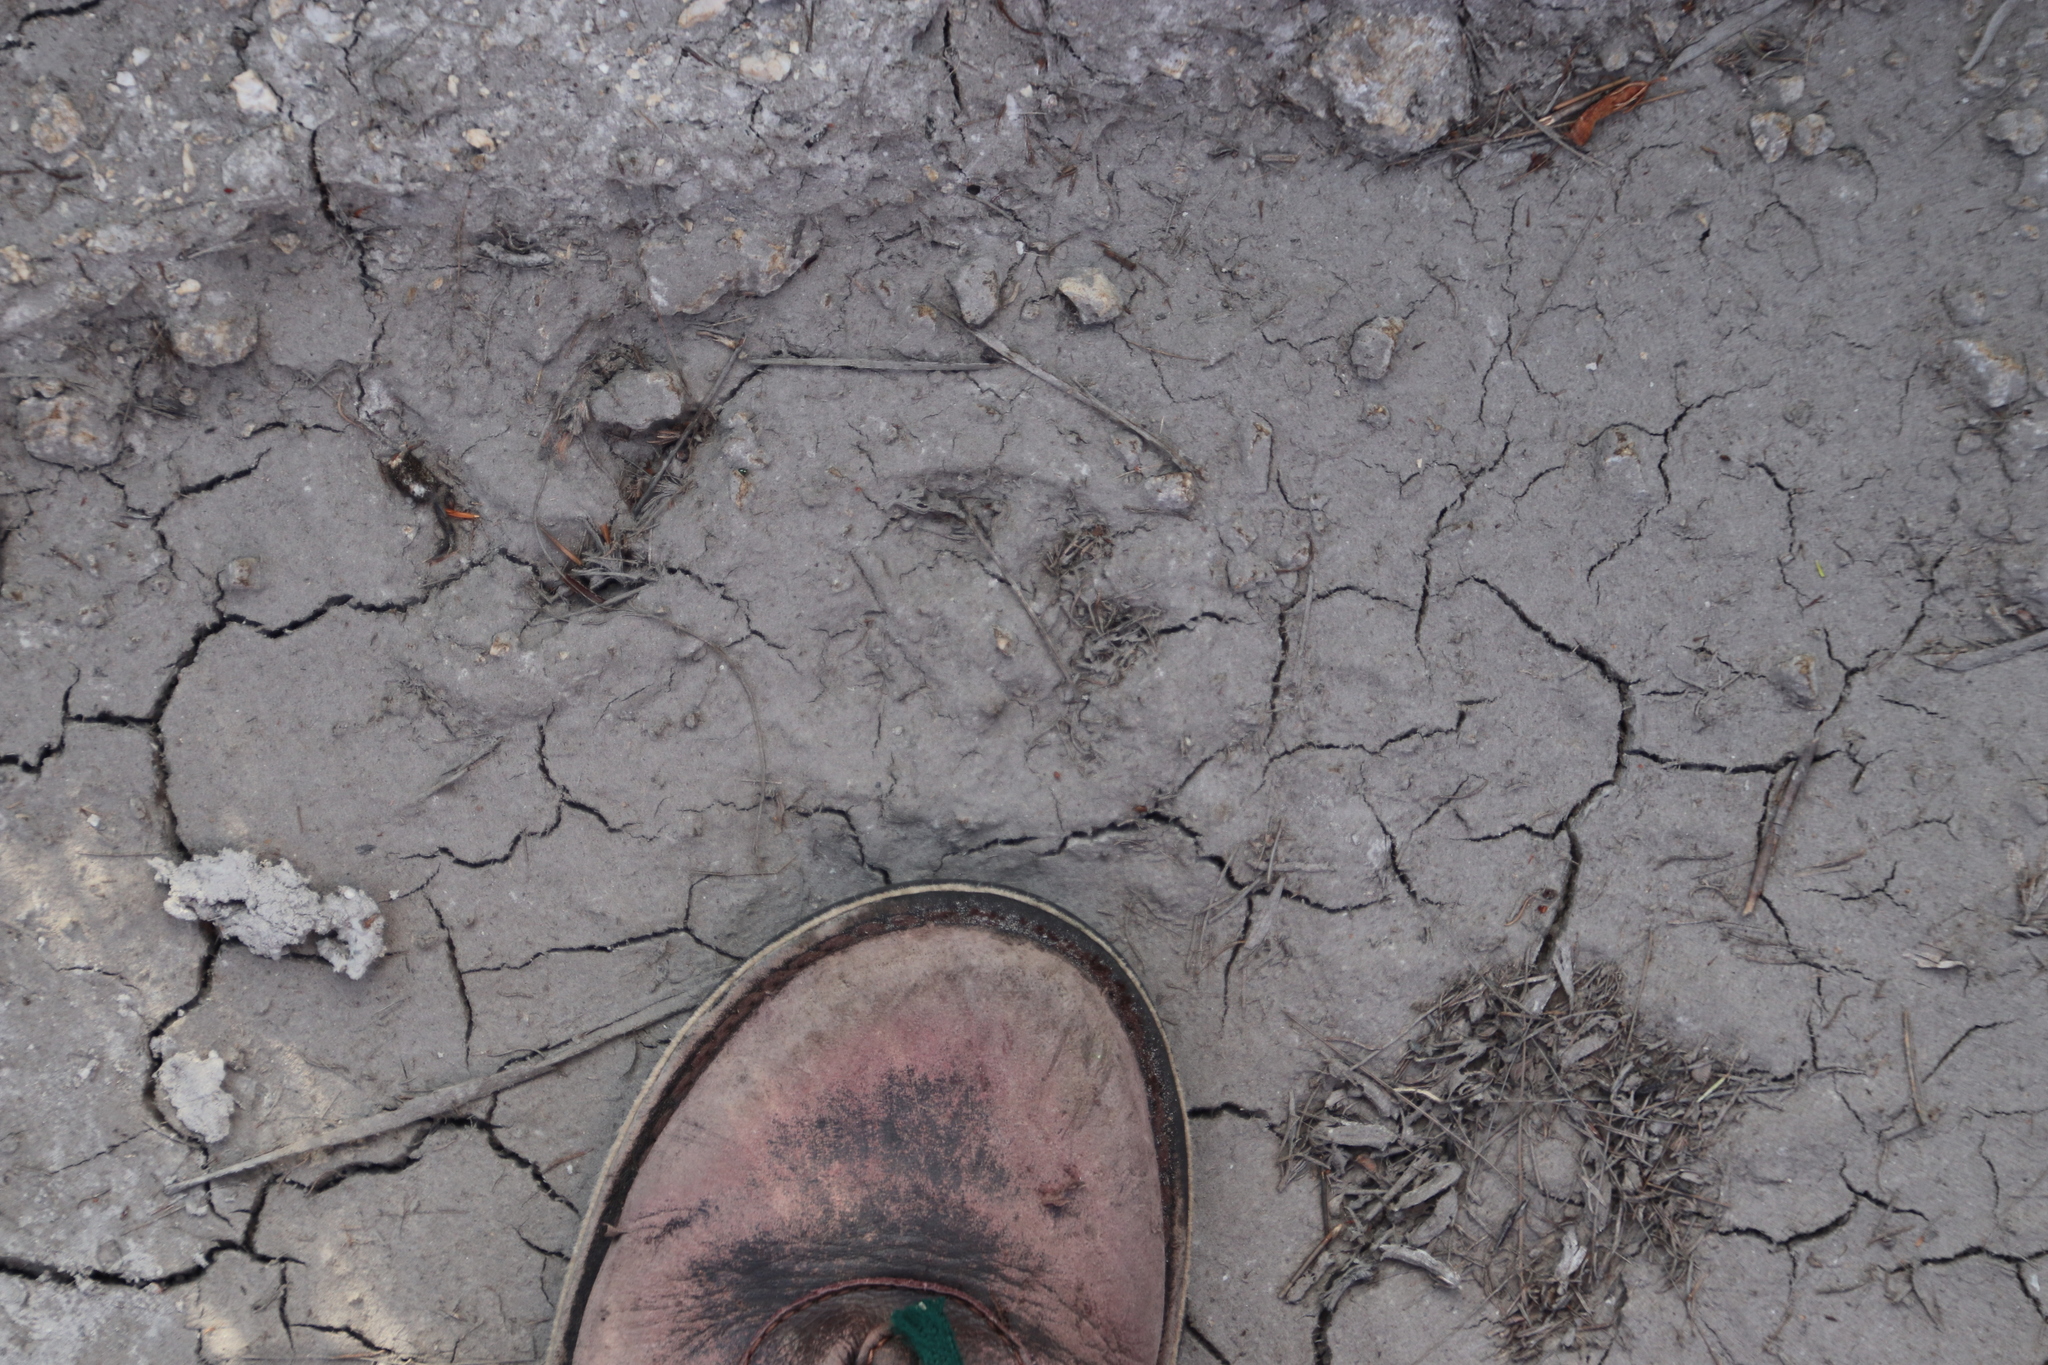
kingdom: Animalia
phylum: Chordata
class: Mammalia
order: Carnivora
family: Felidae
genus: Panthera
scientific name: Panthera pardus
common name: Leopard
